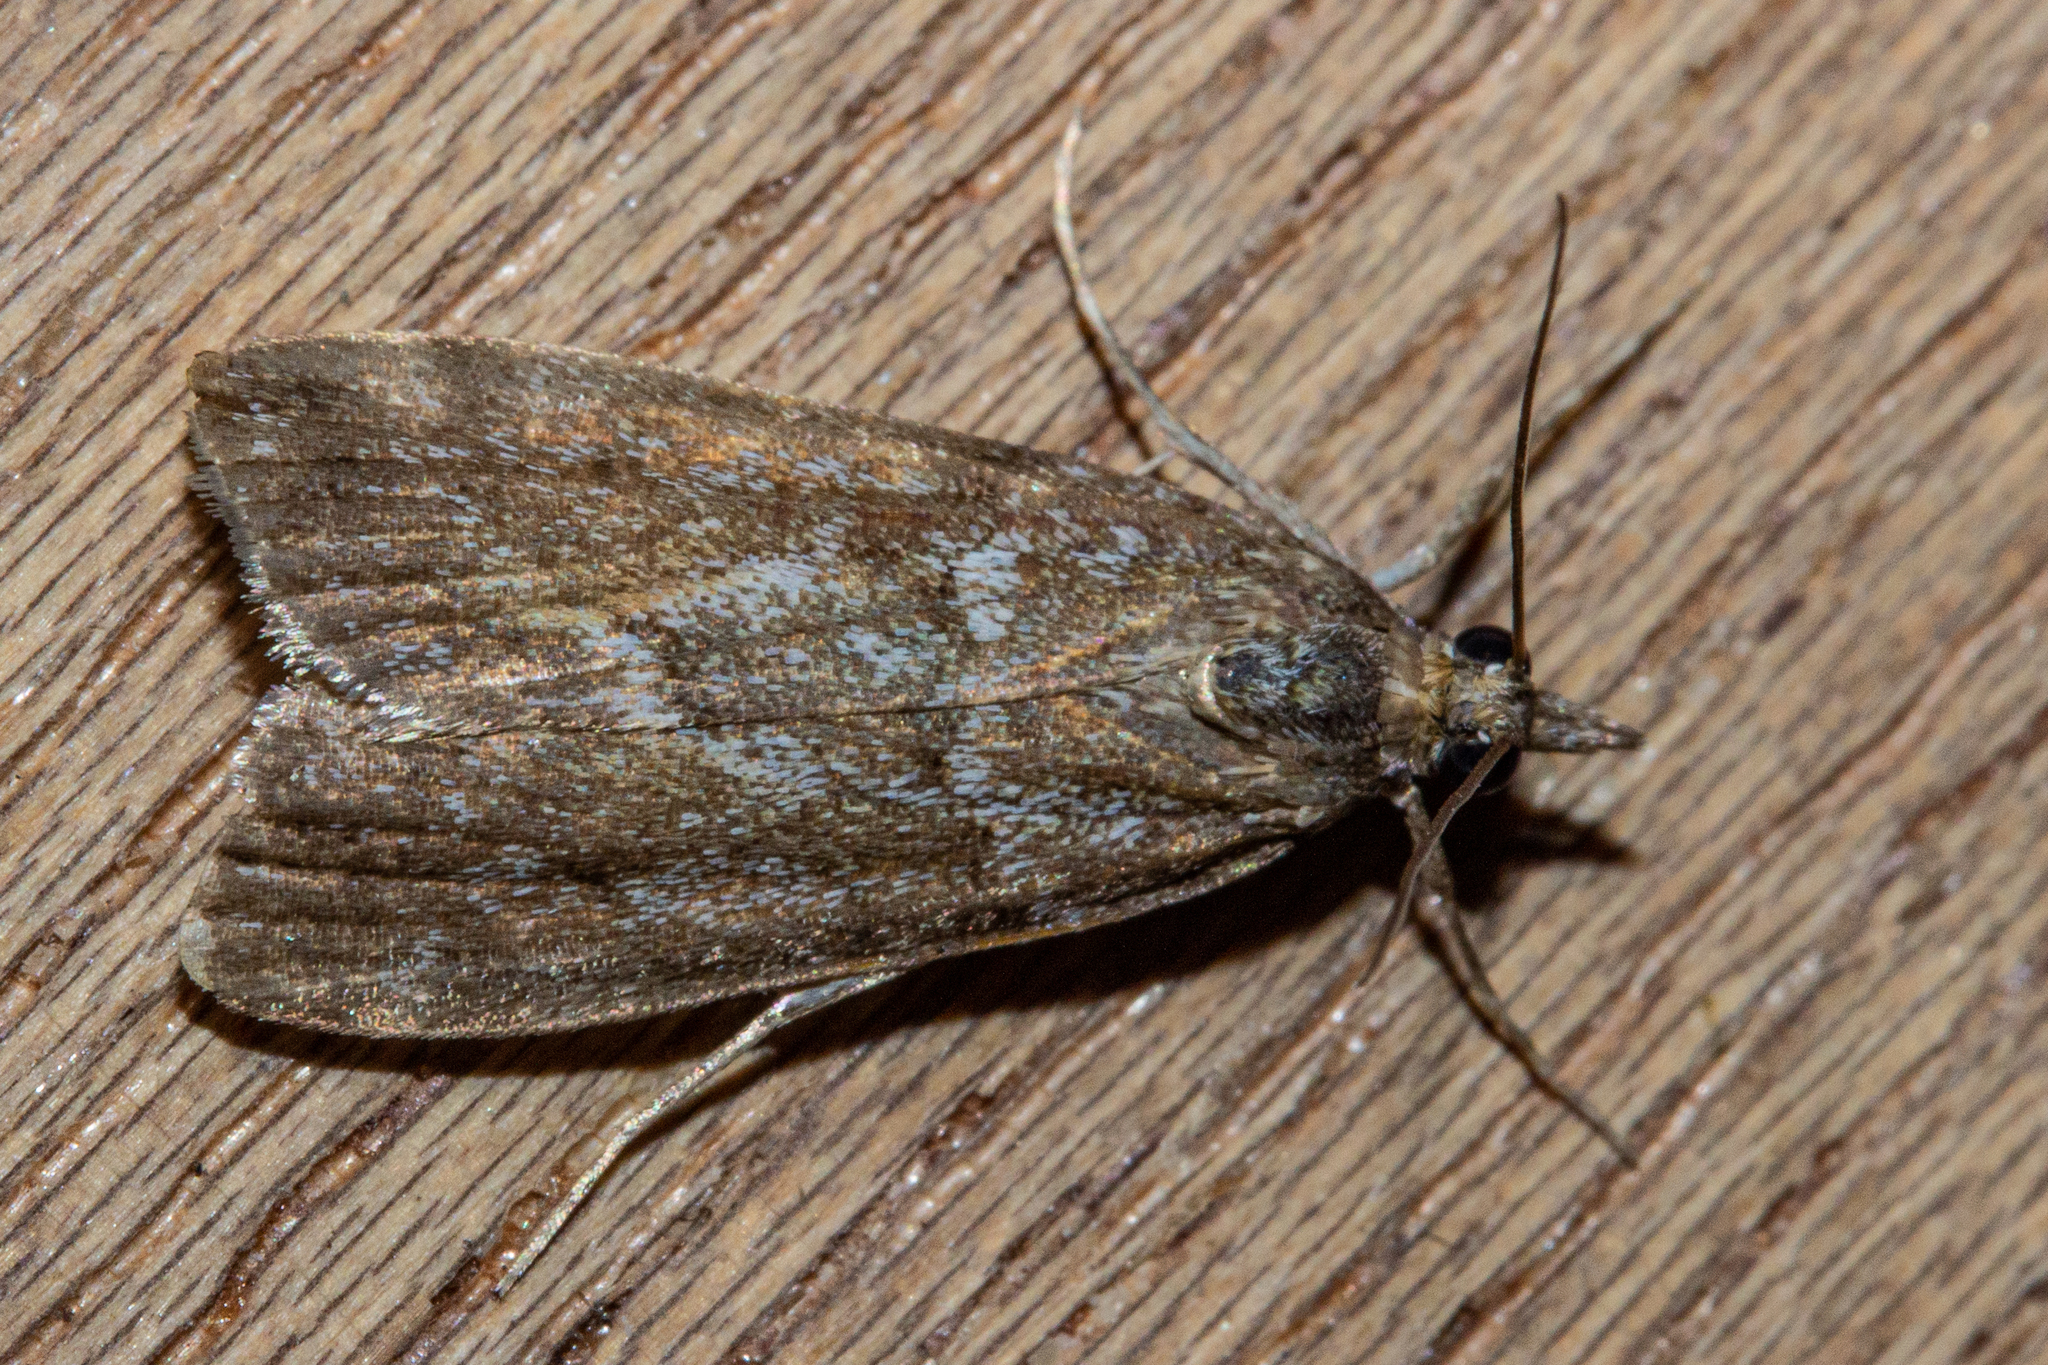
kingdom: Animalia
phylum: Arthropoda
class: Insecta
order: Lepidoptera
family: Crambidae
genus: Eudonia
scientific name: Eudonia submarginalis
